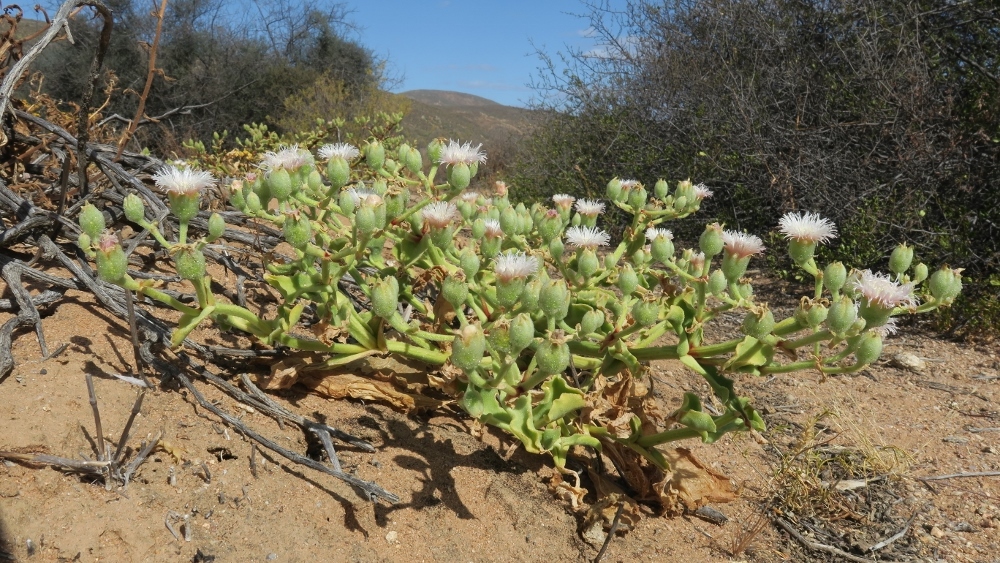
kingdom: Plantae
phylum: Tracheophyta
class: Magnoliopsida
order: Caryophyllales
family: Aizoaceae
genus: Mesembryanthemum
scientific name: Mesembryanthemum guerichianum
